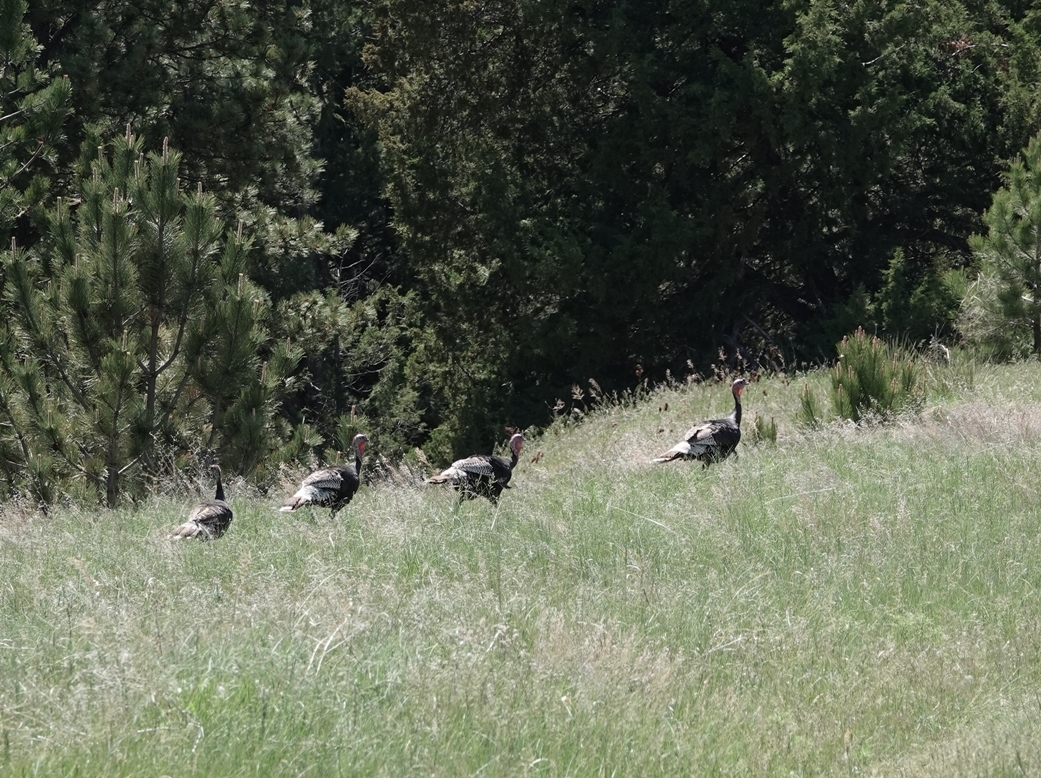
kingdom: Animalia
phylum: Chordata
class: Aves
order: Galliformes
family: Phasianidae
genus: Meleagris
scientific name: Meleagris gallopavo
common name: Wild turkey
